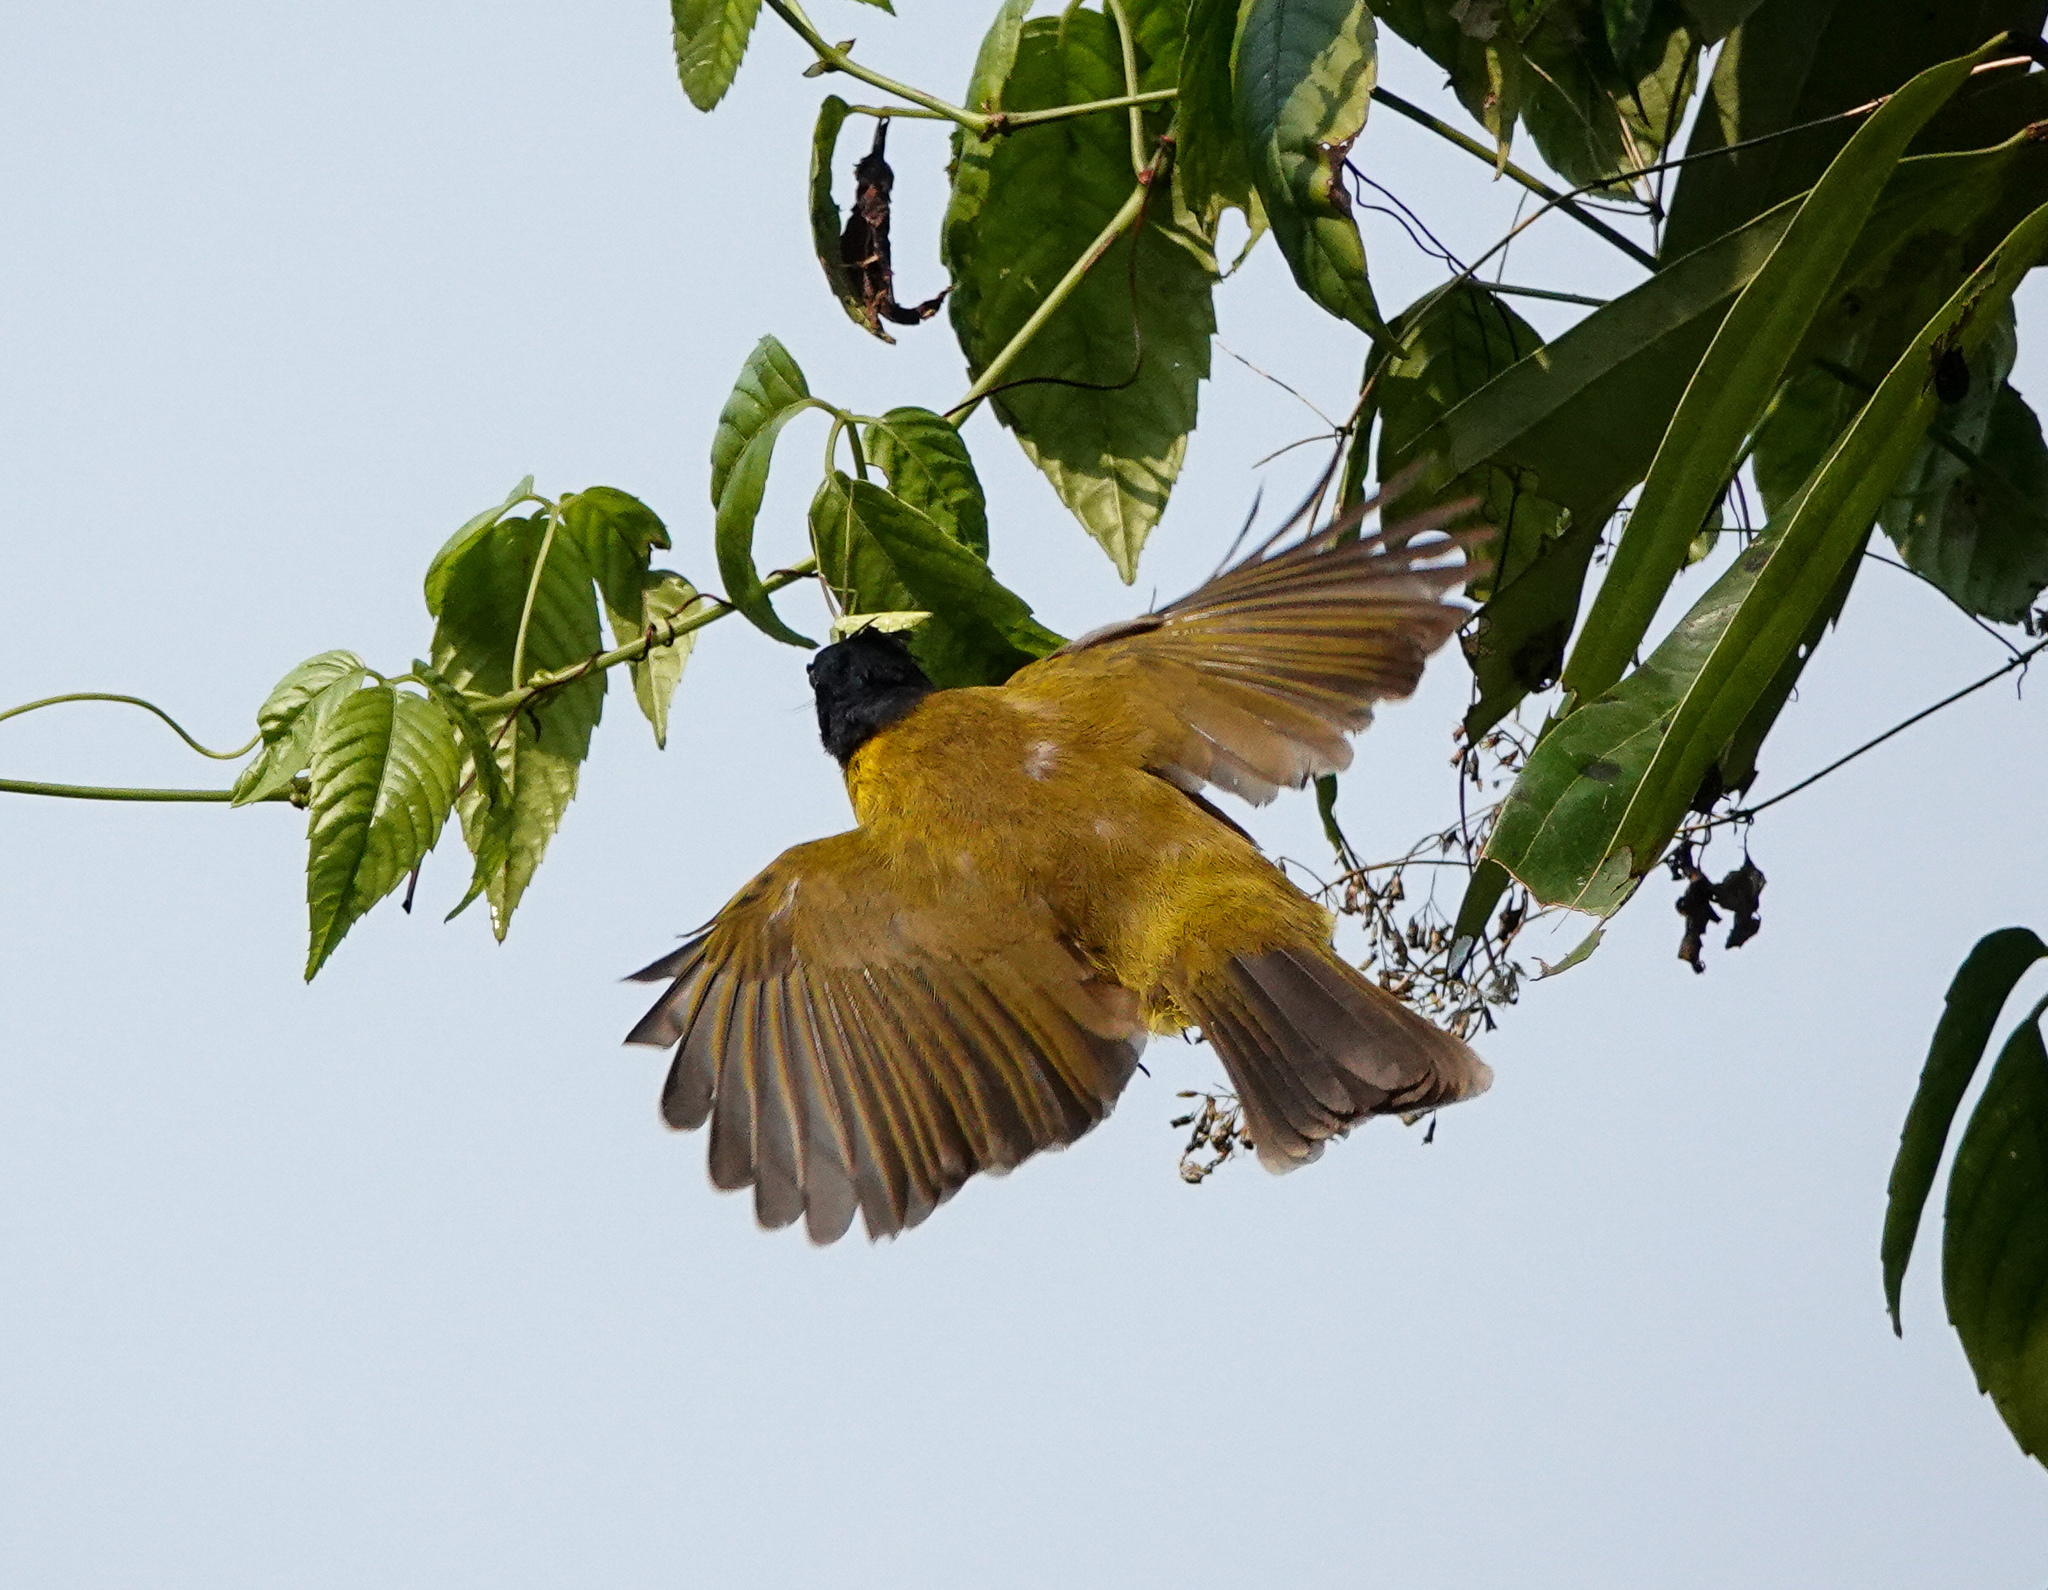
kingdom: Animalia
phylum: Chordata
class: Aves
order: Passeriformes
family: Pycnonotidae
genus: Pycnonotus
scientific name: Pycnonotus flaviventris
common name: Black-crested bulbul
